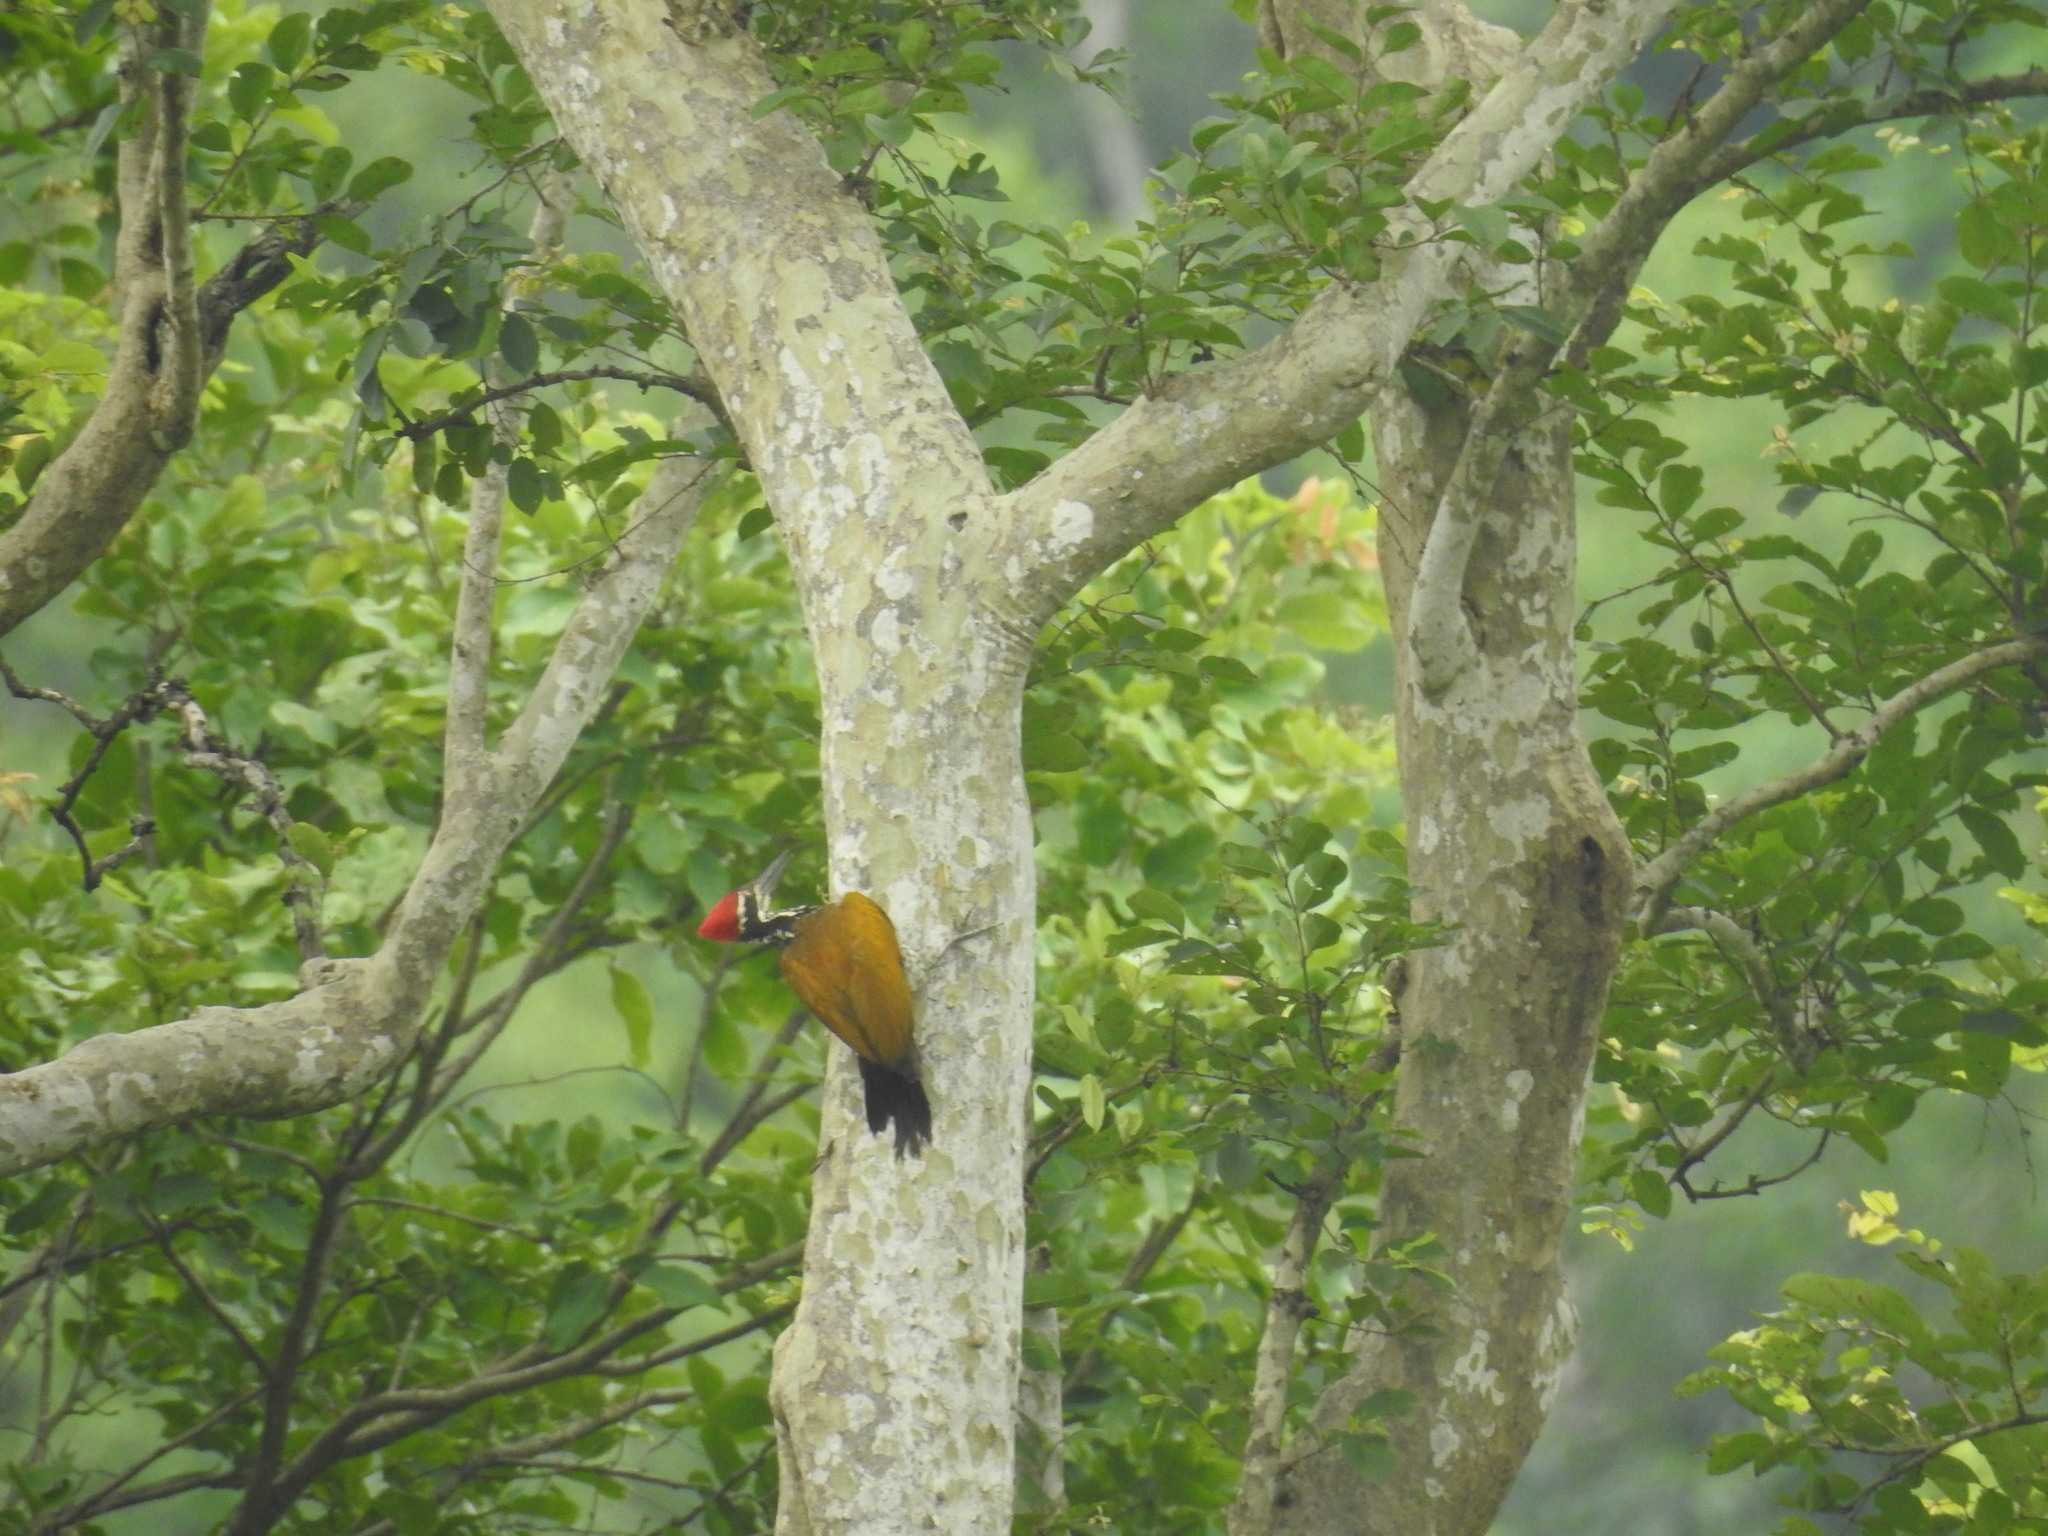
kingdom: Animalia
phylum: Chordata
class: Aves
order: Piciformes
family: Picidae
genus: Chrysocolaptes
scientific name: Chrysocolaptes guttacristatus
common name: Greater flameback
